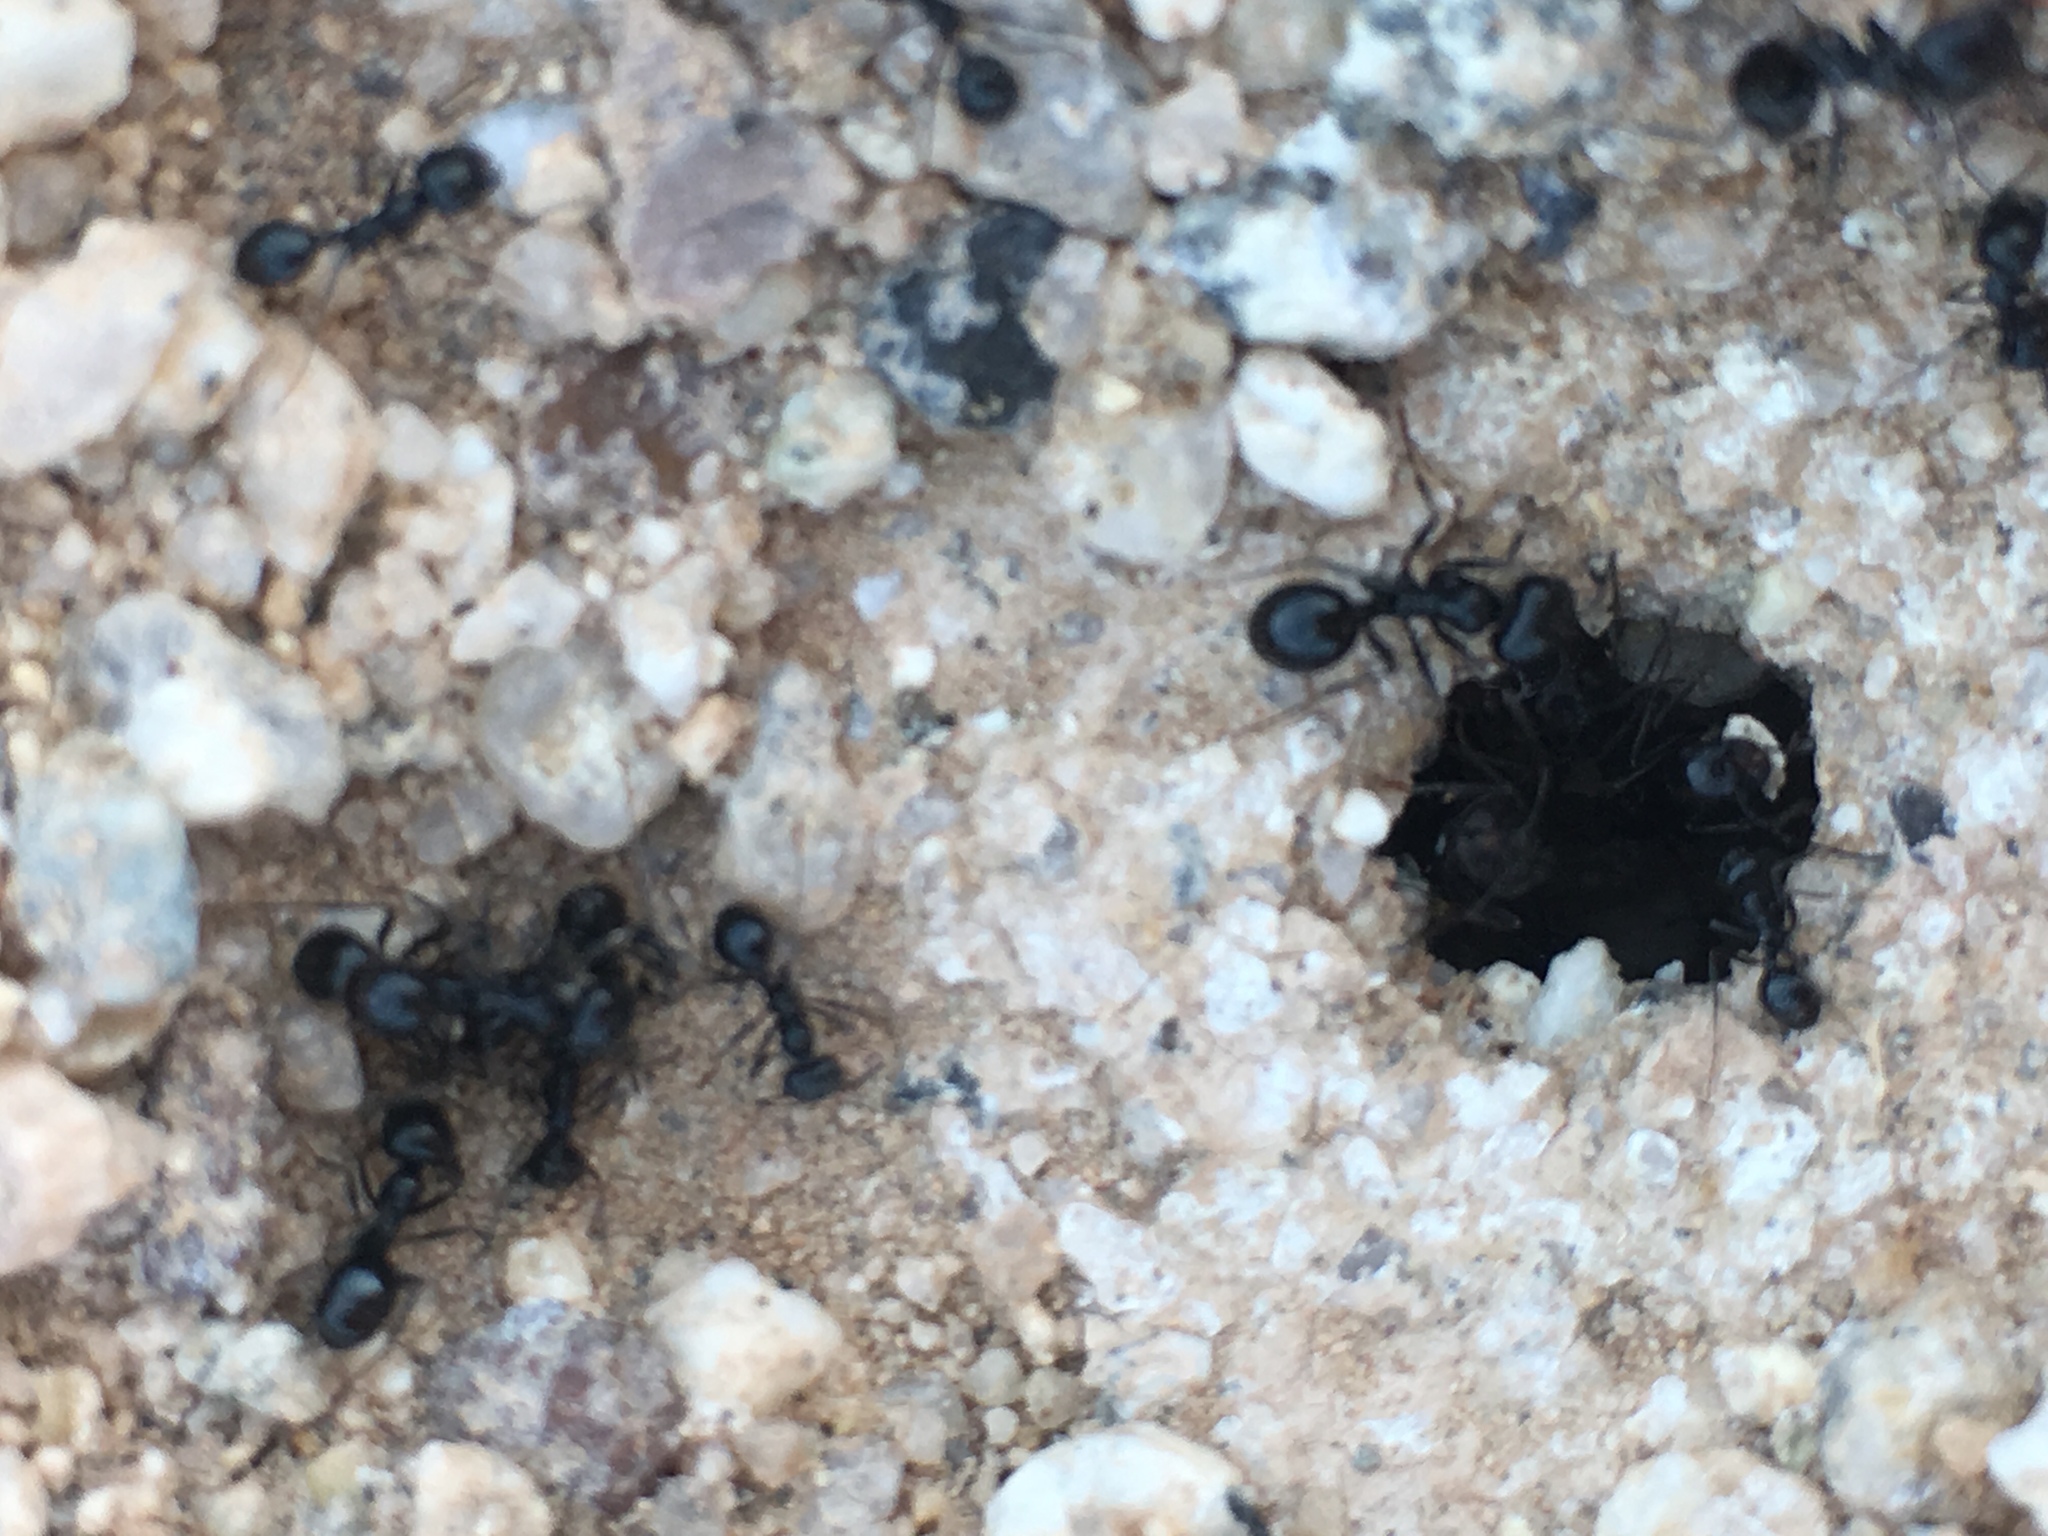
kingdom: Animalia
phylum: Arthropoda
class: Insecta
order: Hymenoptera
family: Formicidae
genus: Messor
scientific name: Messor pergandei
